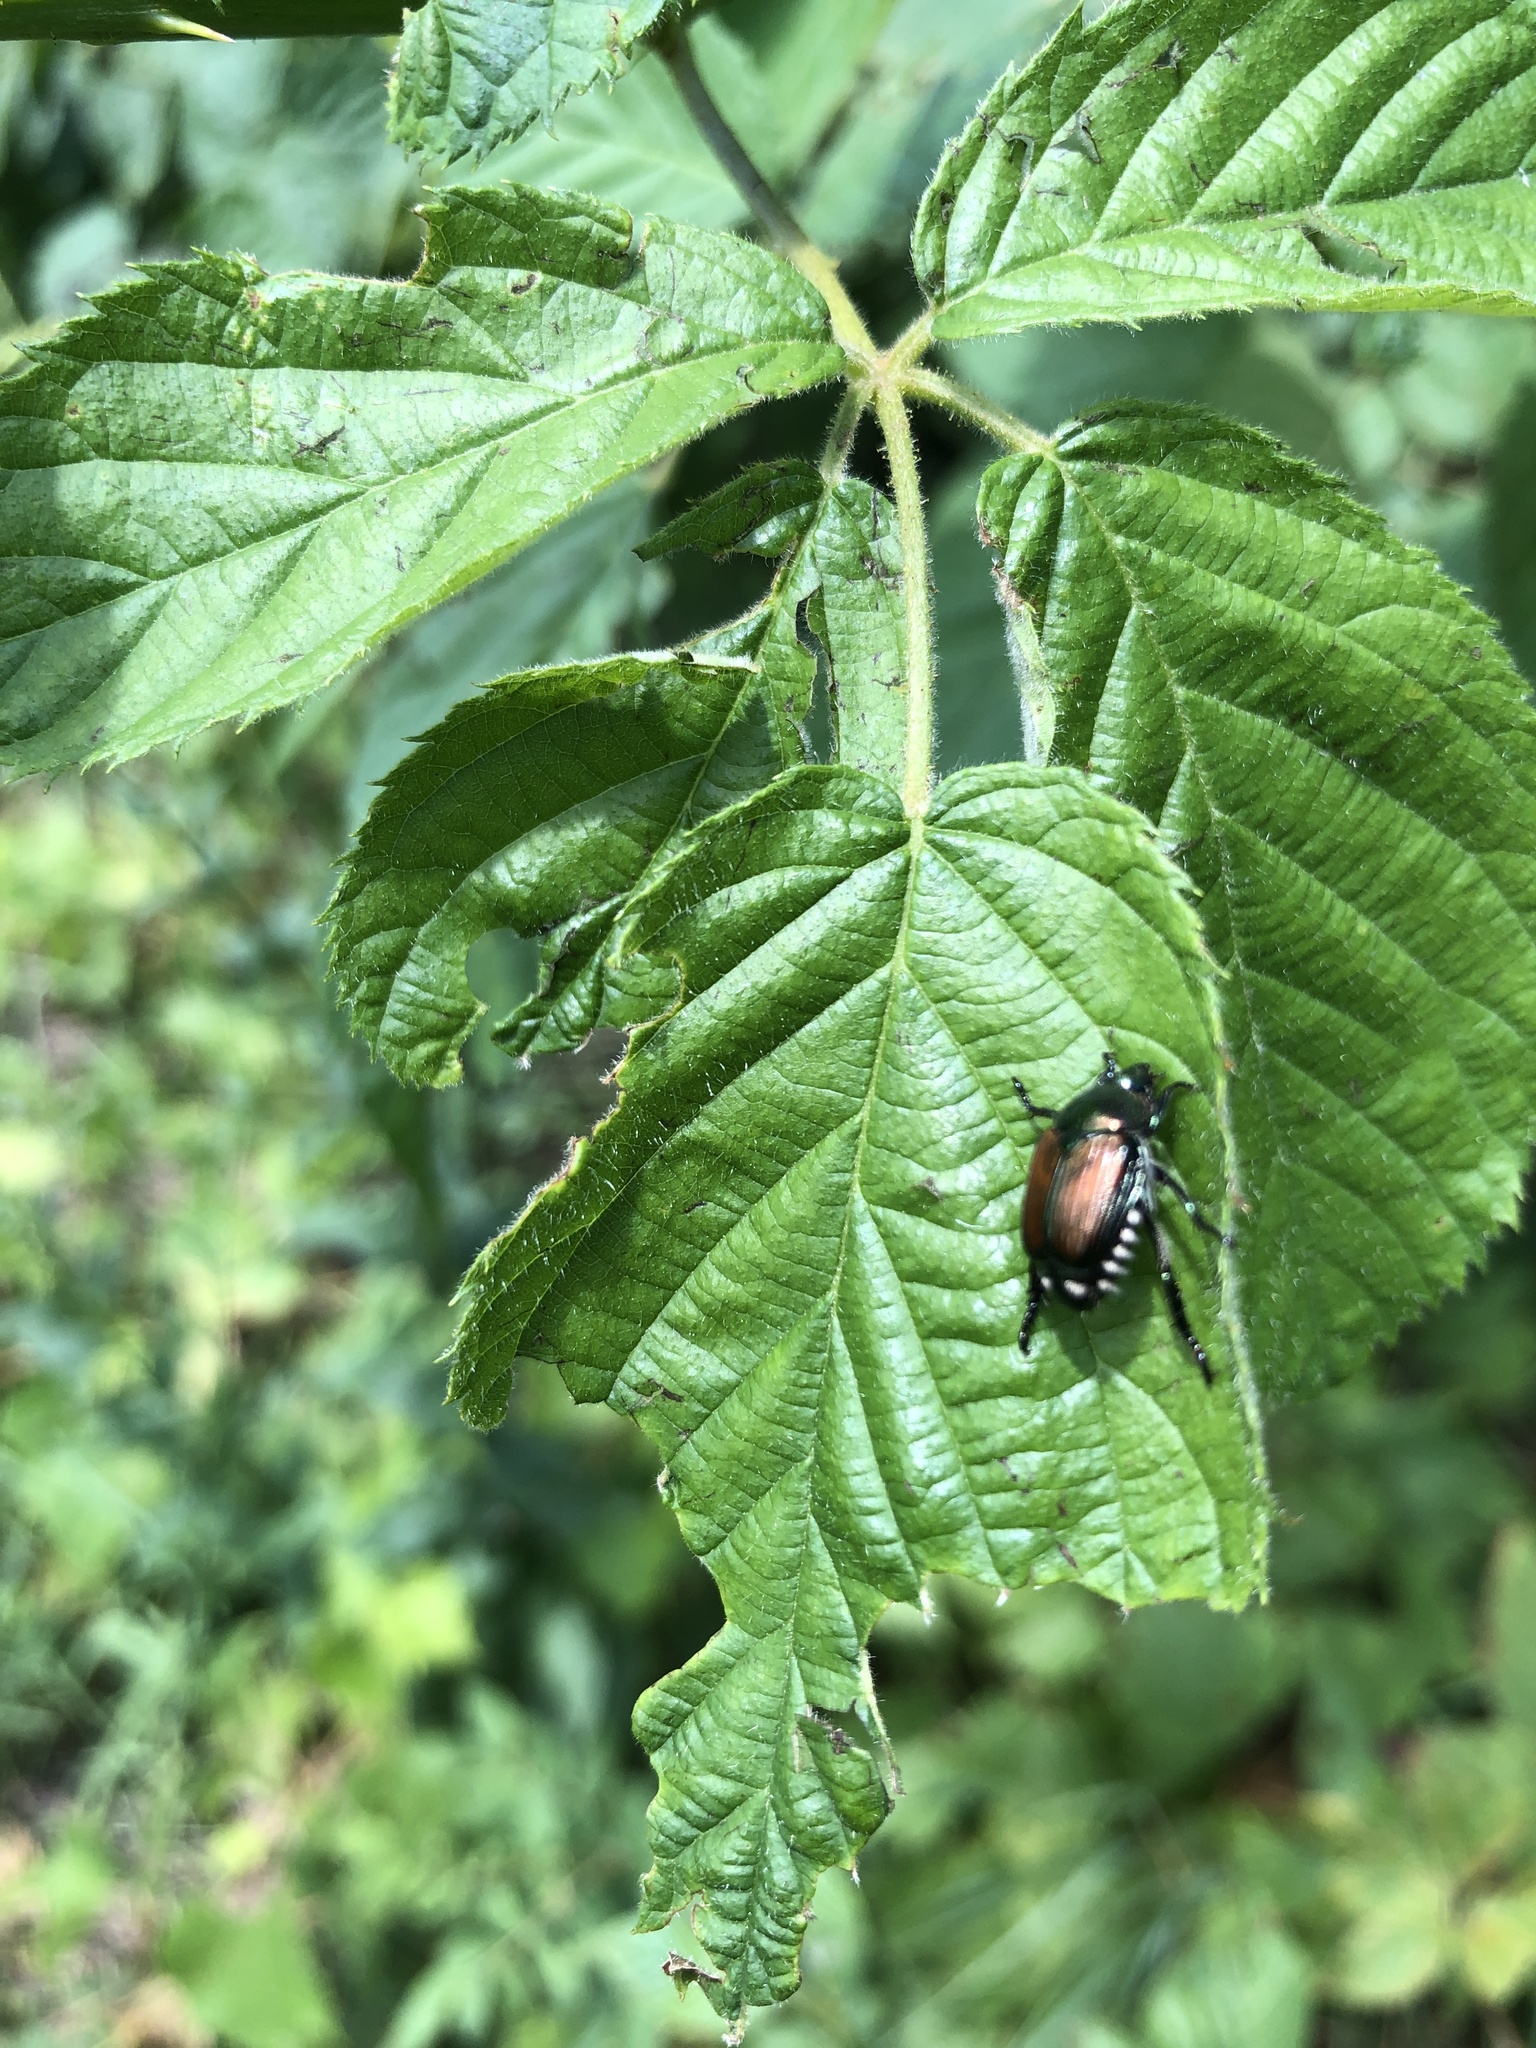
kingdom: Animalia
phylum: Arthropoda
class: Insecta
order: Coleoptera
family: Scarabaeidae
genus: Popillia
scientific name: Popillia japonica
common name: Japanese beetle
